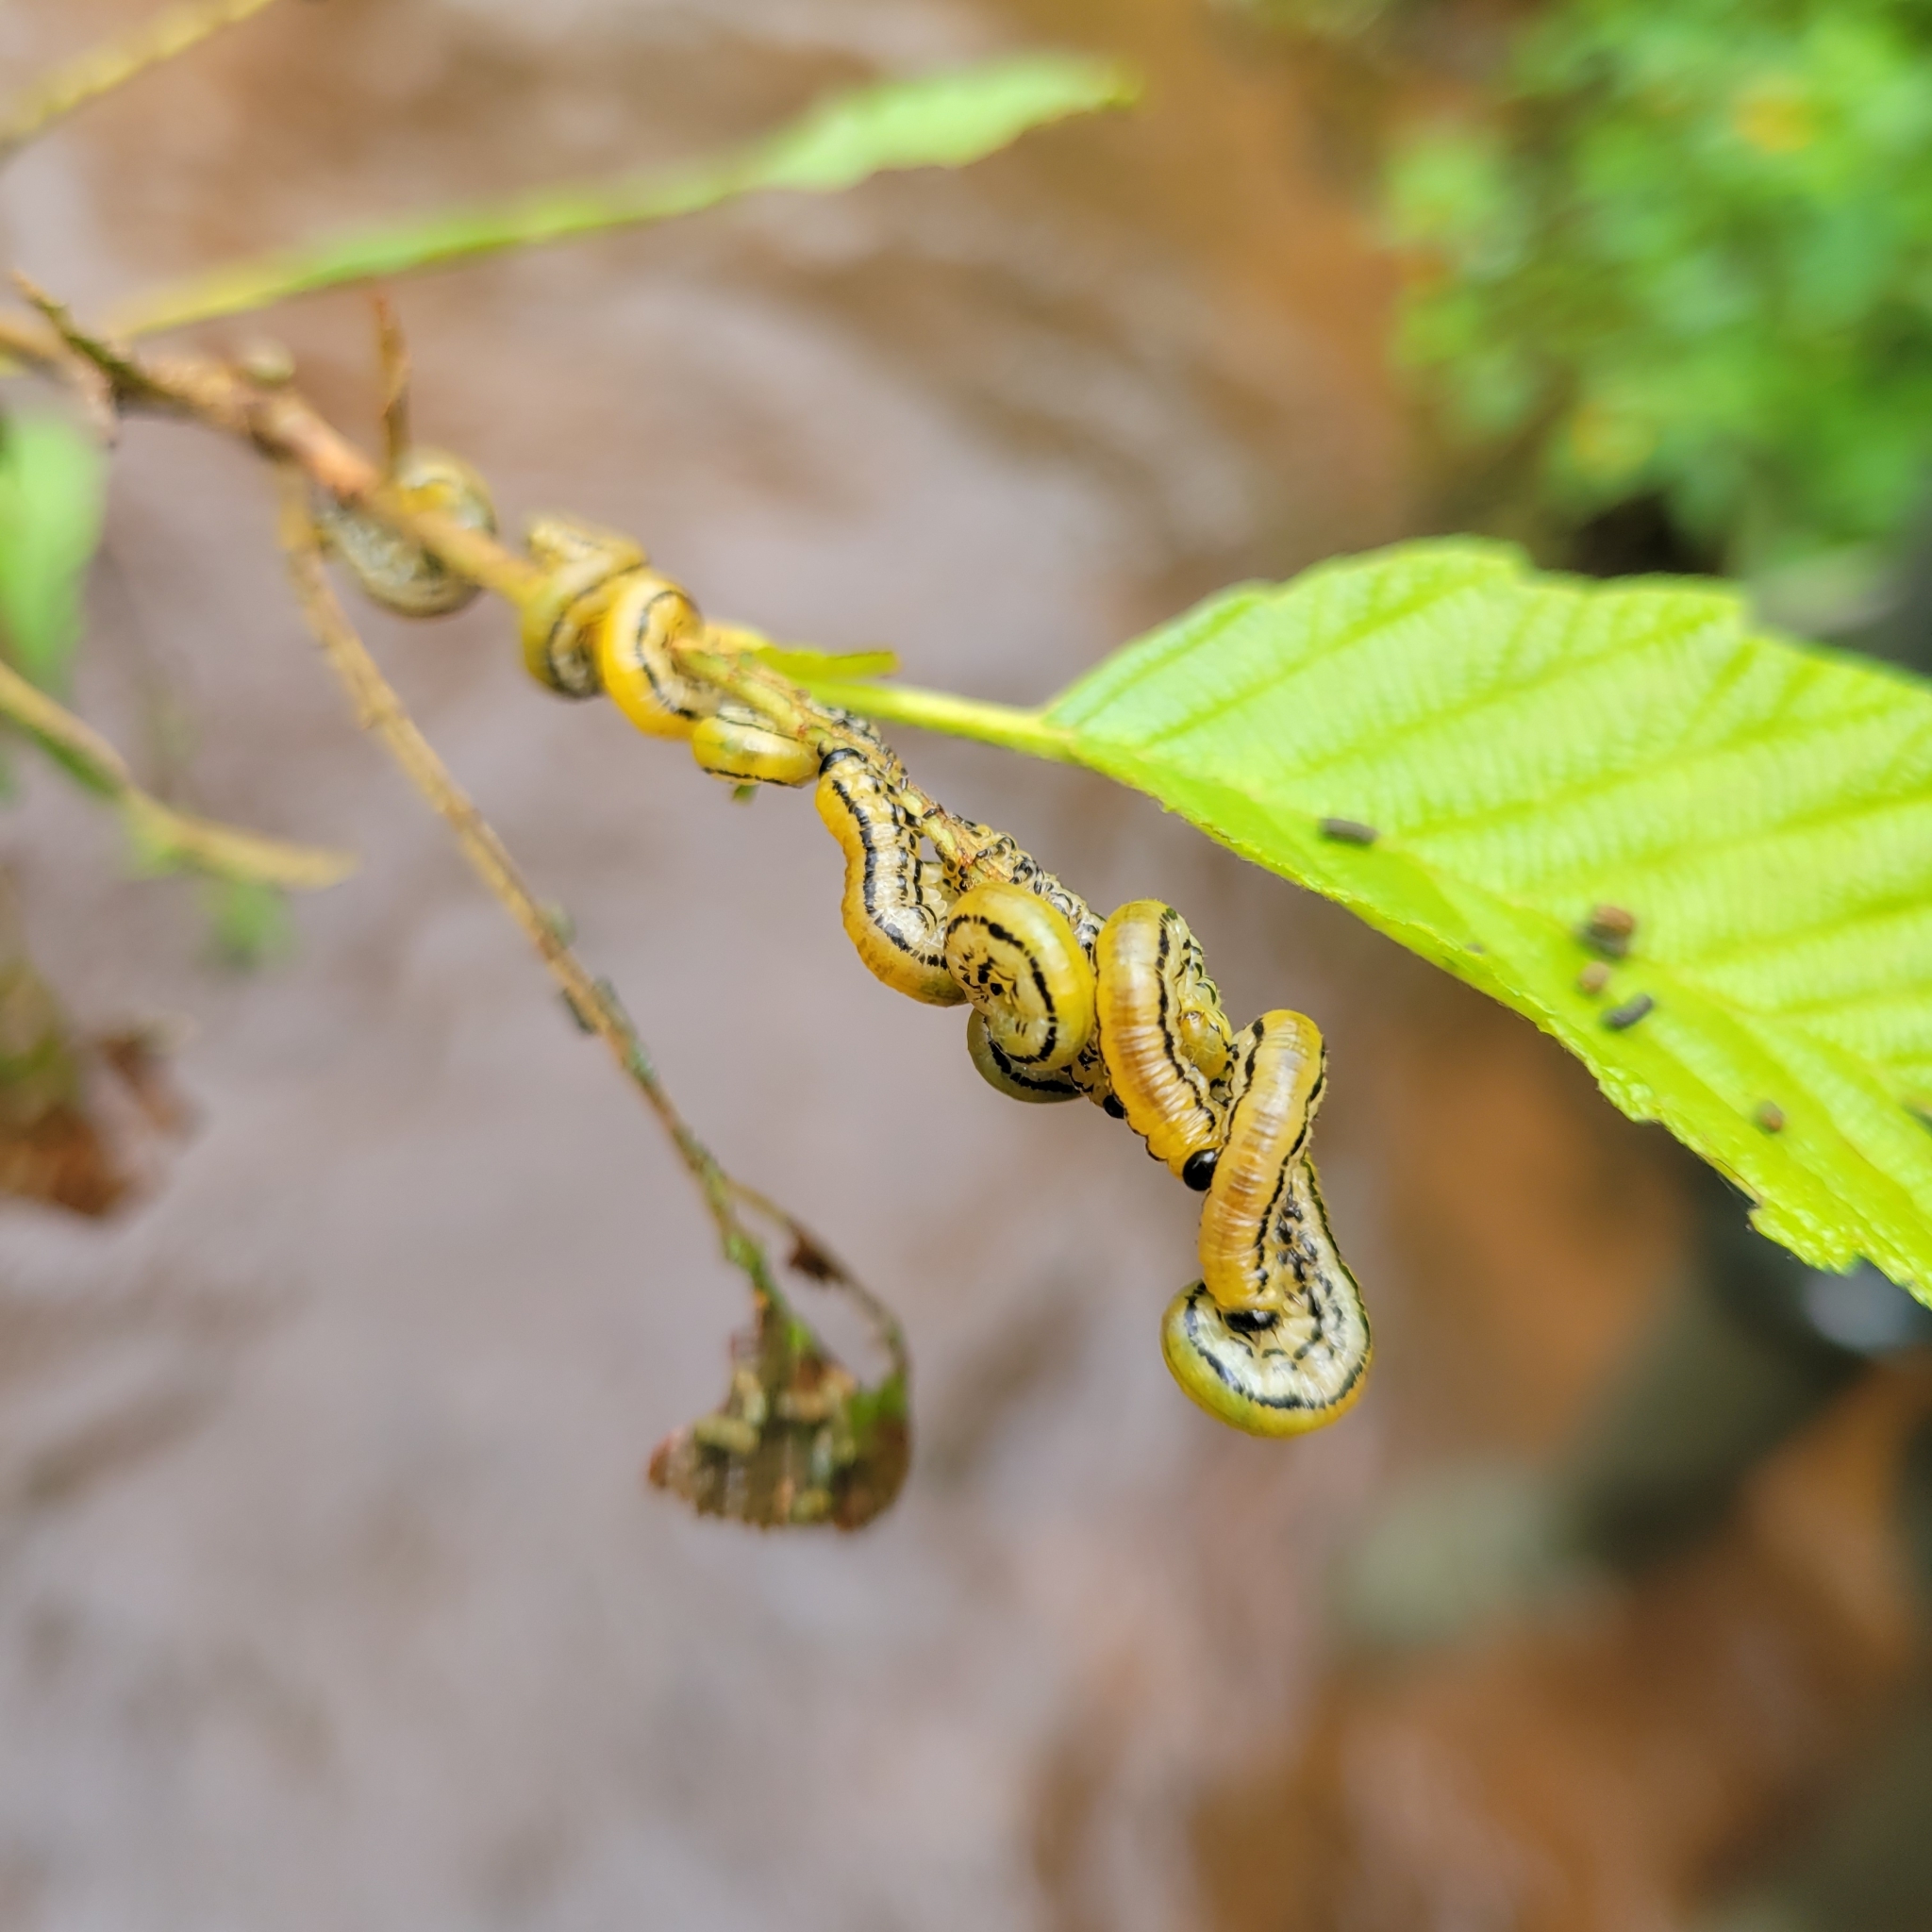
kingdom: Animalia
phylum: Arthropoda
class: Insecta
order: Hymenoptera
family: Tenthredinidae
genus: Hemichroa
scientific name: Hemichroa crocea
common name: Striped alder sawfly
